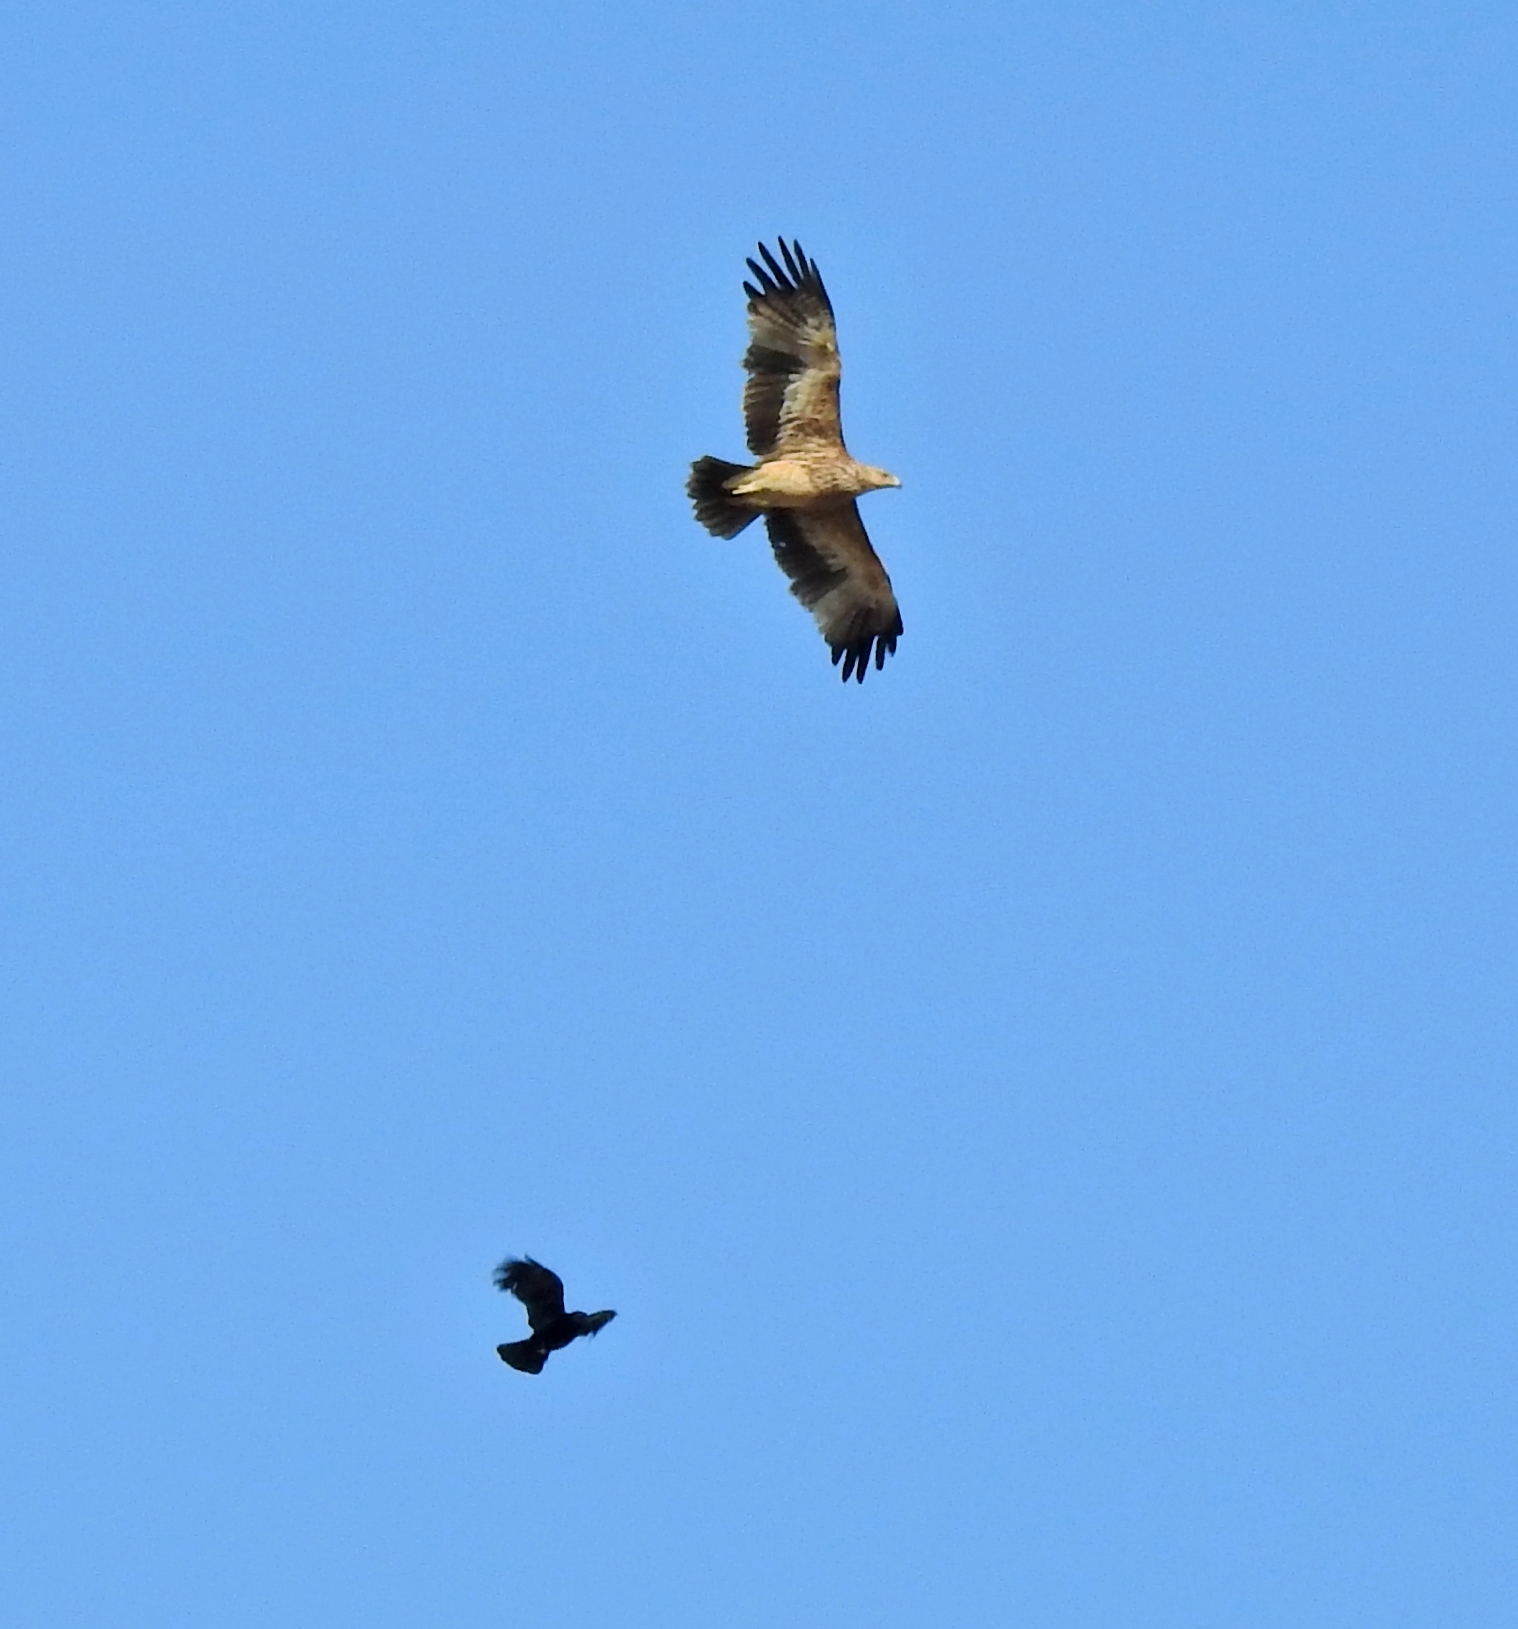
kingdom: Animalia
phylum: Chordata
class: Aves
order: Accipitriformes
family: Accipitridae
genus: Hieraaetus
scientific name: Hieraaetus pennatus
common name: Booted eagle
